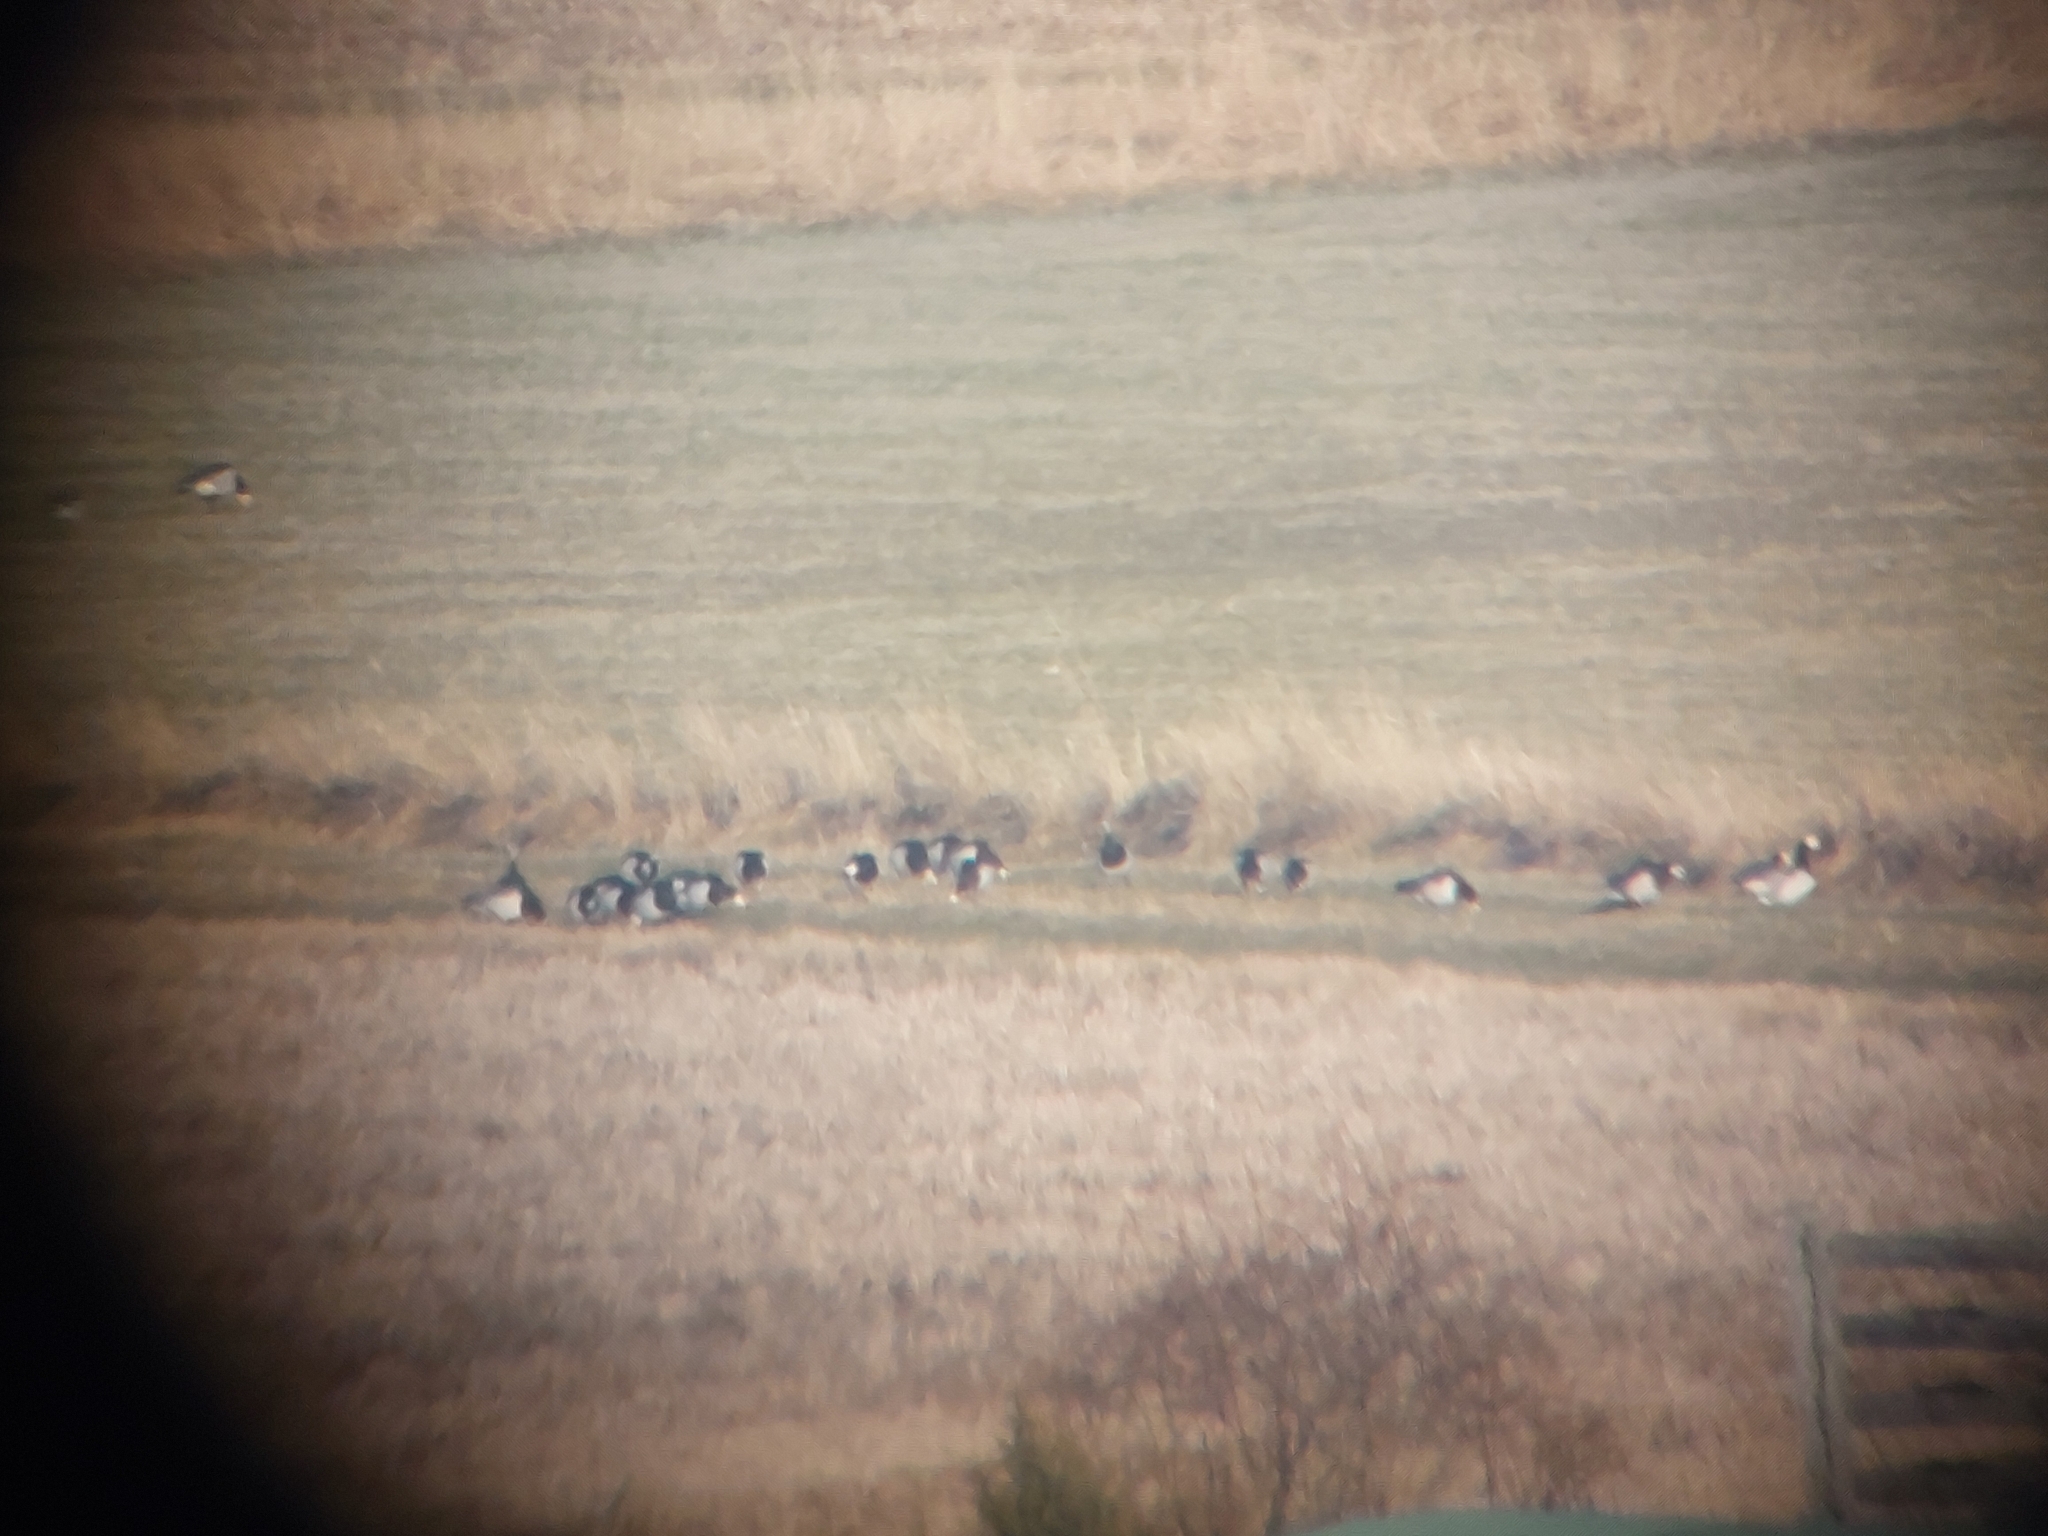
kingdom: Animalia
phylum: Chordata
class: Aves
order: Anseriformes
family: Anatidae
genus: Branta
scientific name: Branta leucopsis
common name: Barnacle goose
